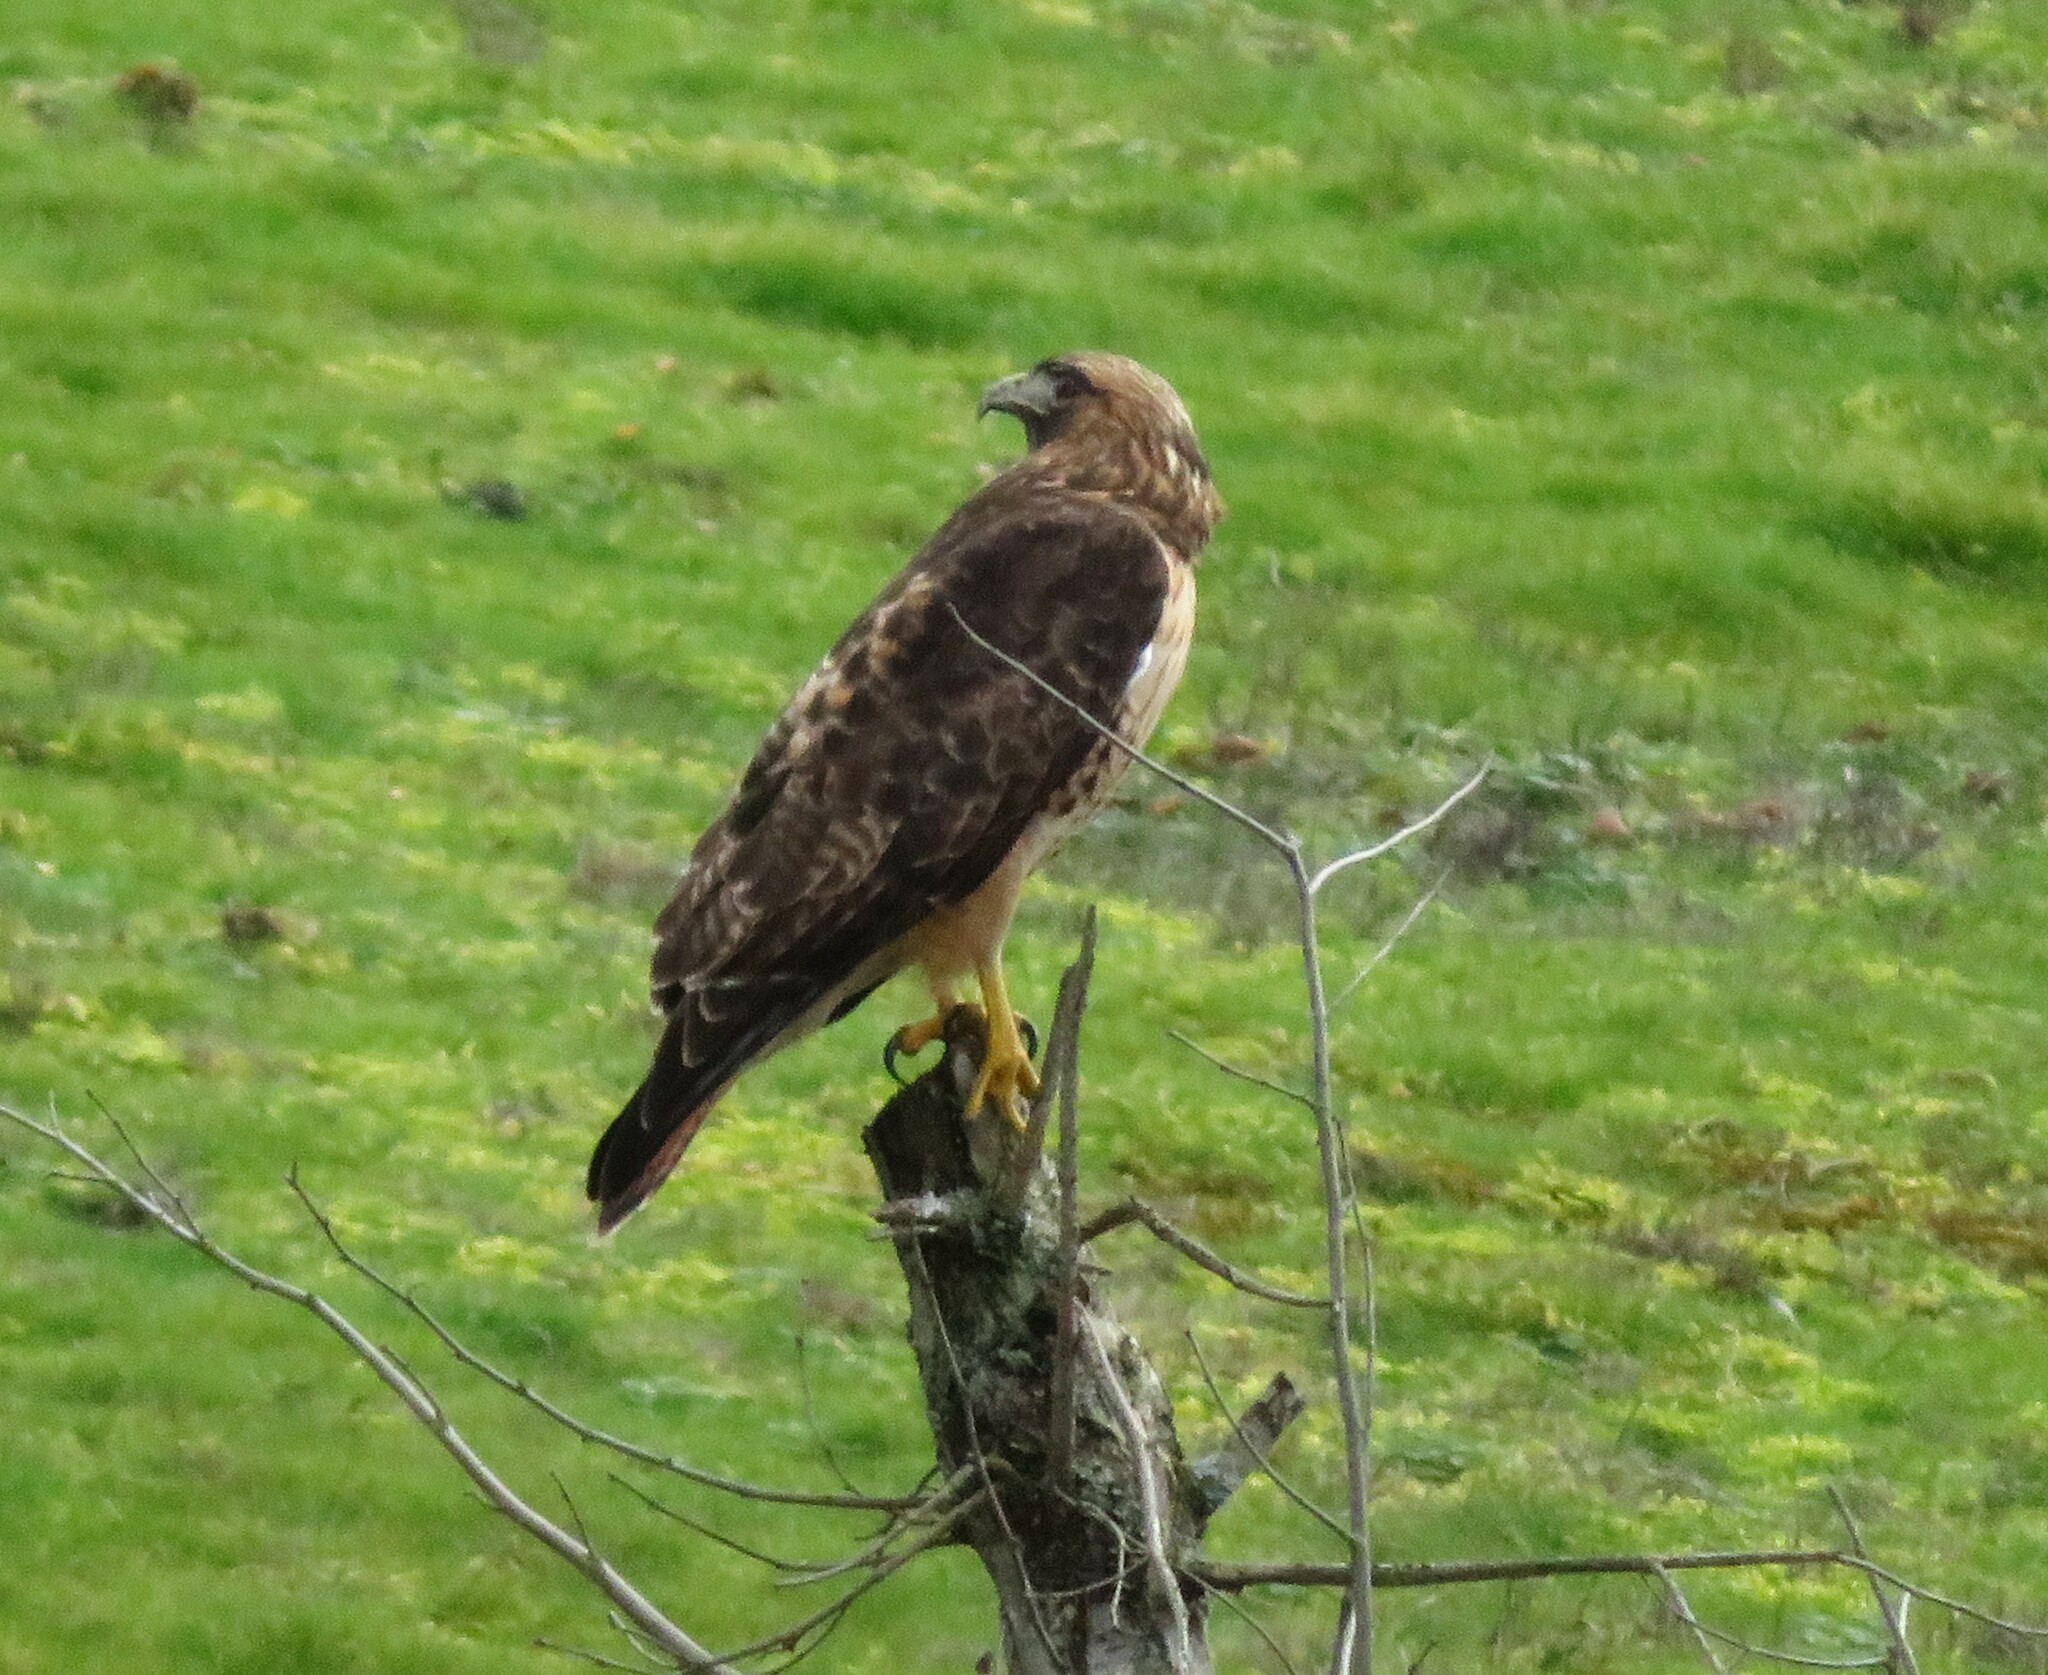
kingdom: Animalia
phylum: Chordata
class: Aves
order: Accipitriformes
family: Accipitridae
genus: Buteo
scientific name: Buteo jamaicensis
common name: Red-tailed hawk
